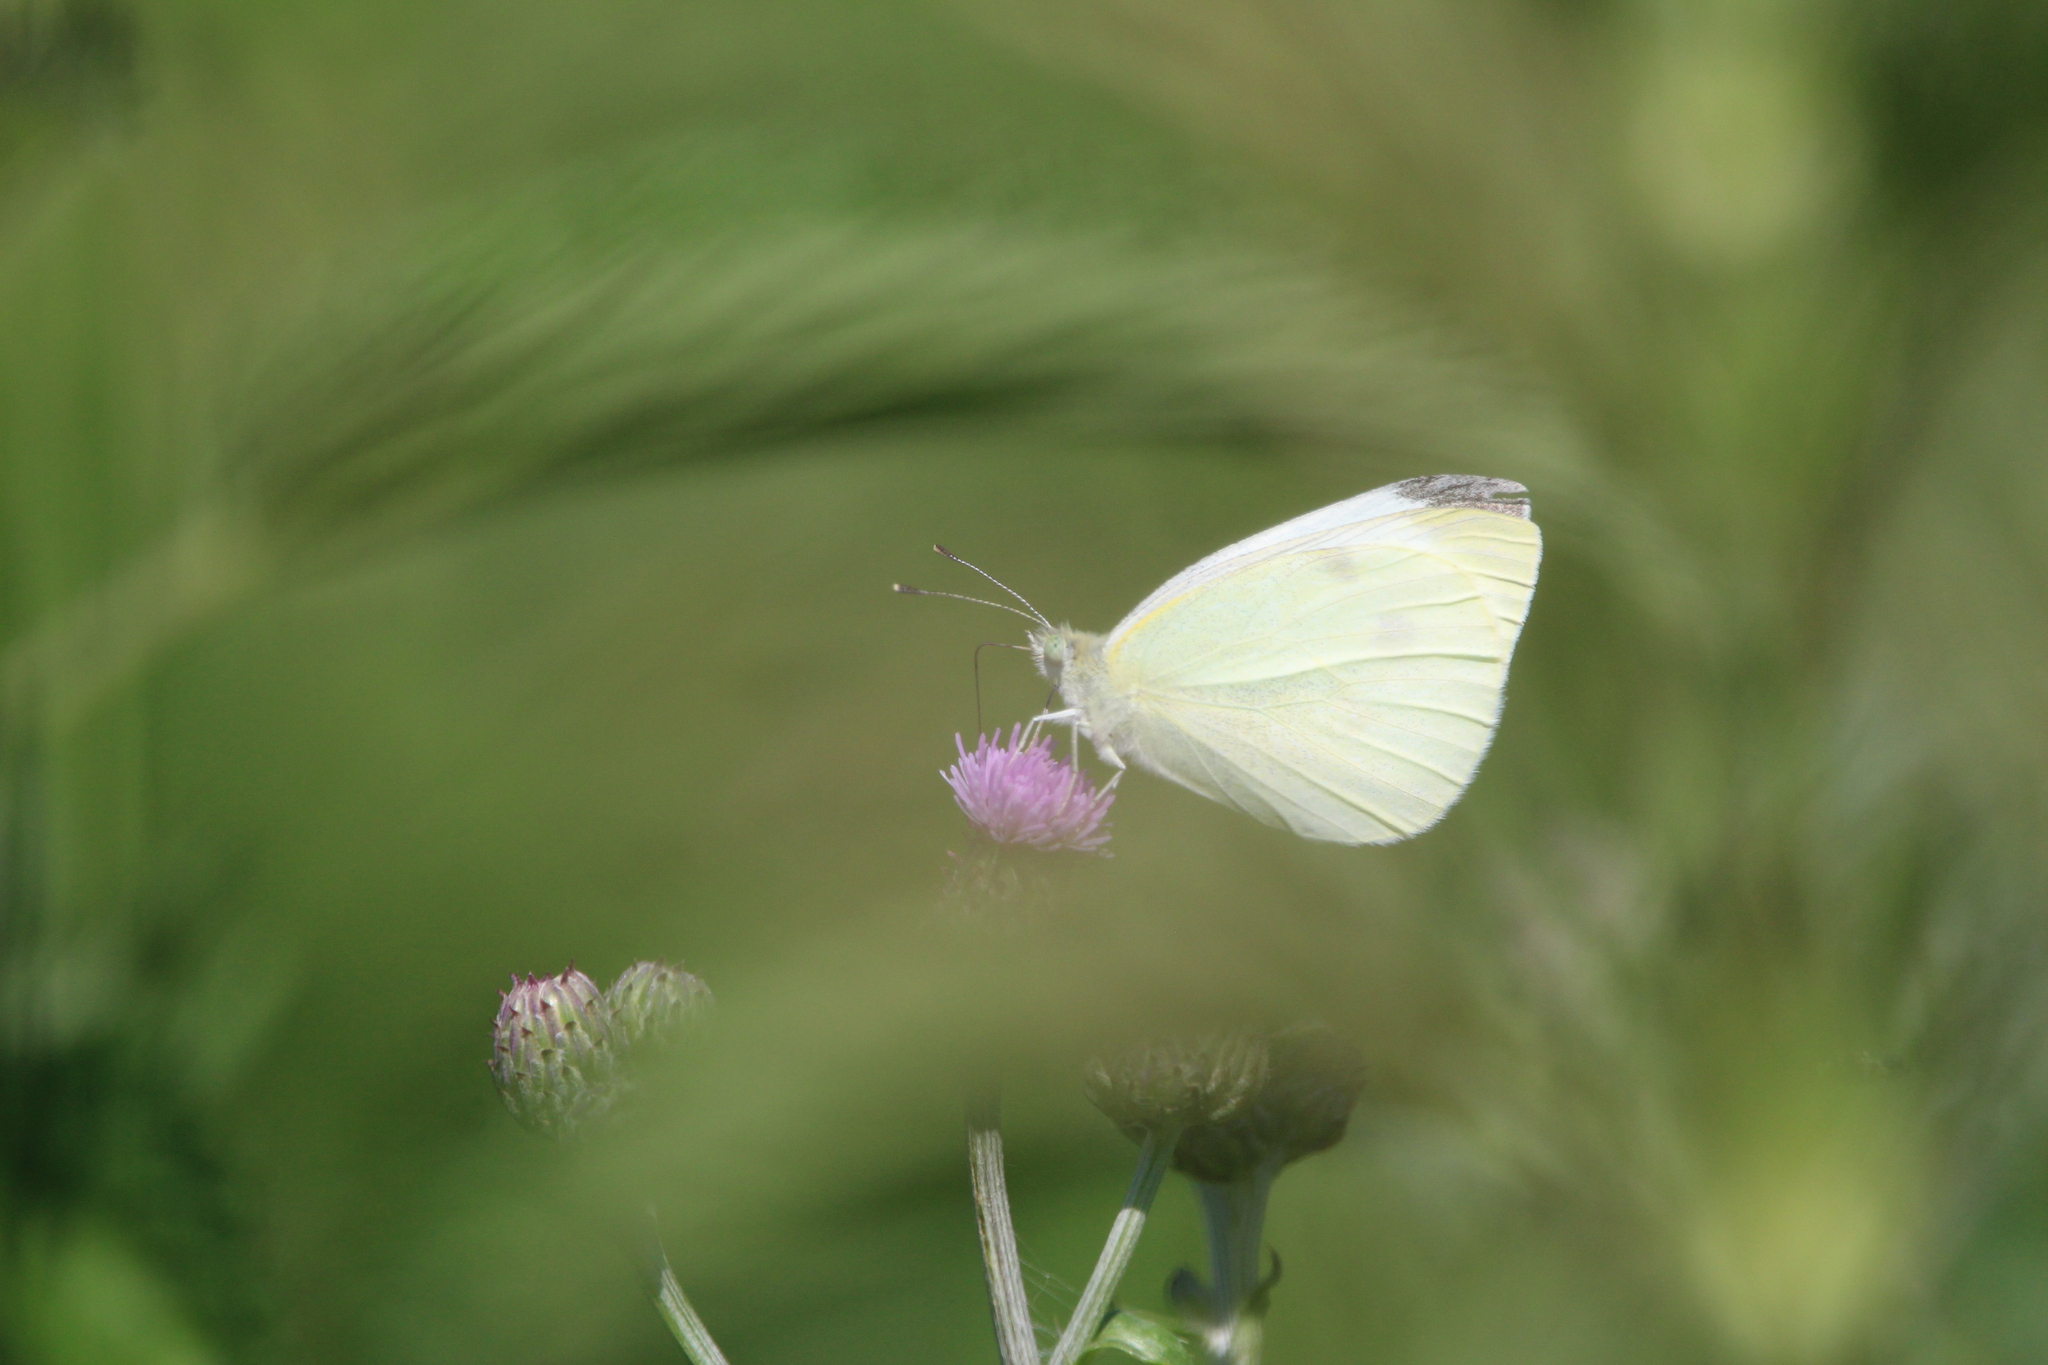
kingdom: Animalia
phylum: Arthropoda
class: Insecta
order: Lepidoptera
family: Pieridae
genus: Pieris
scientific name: Pieris rapae
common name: Small white
